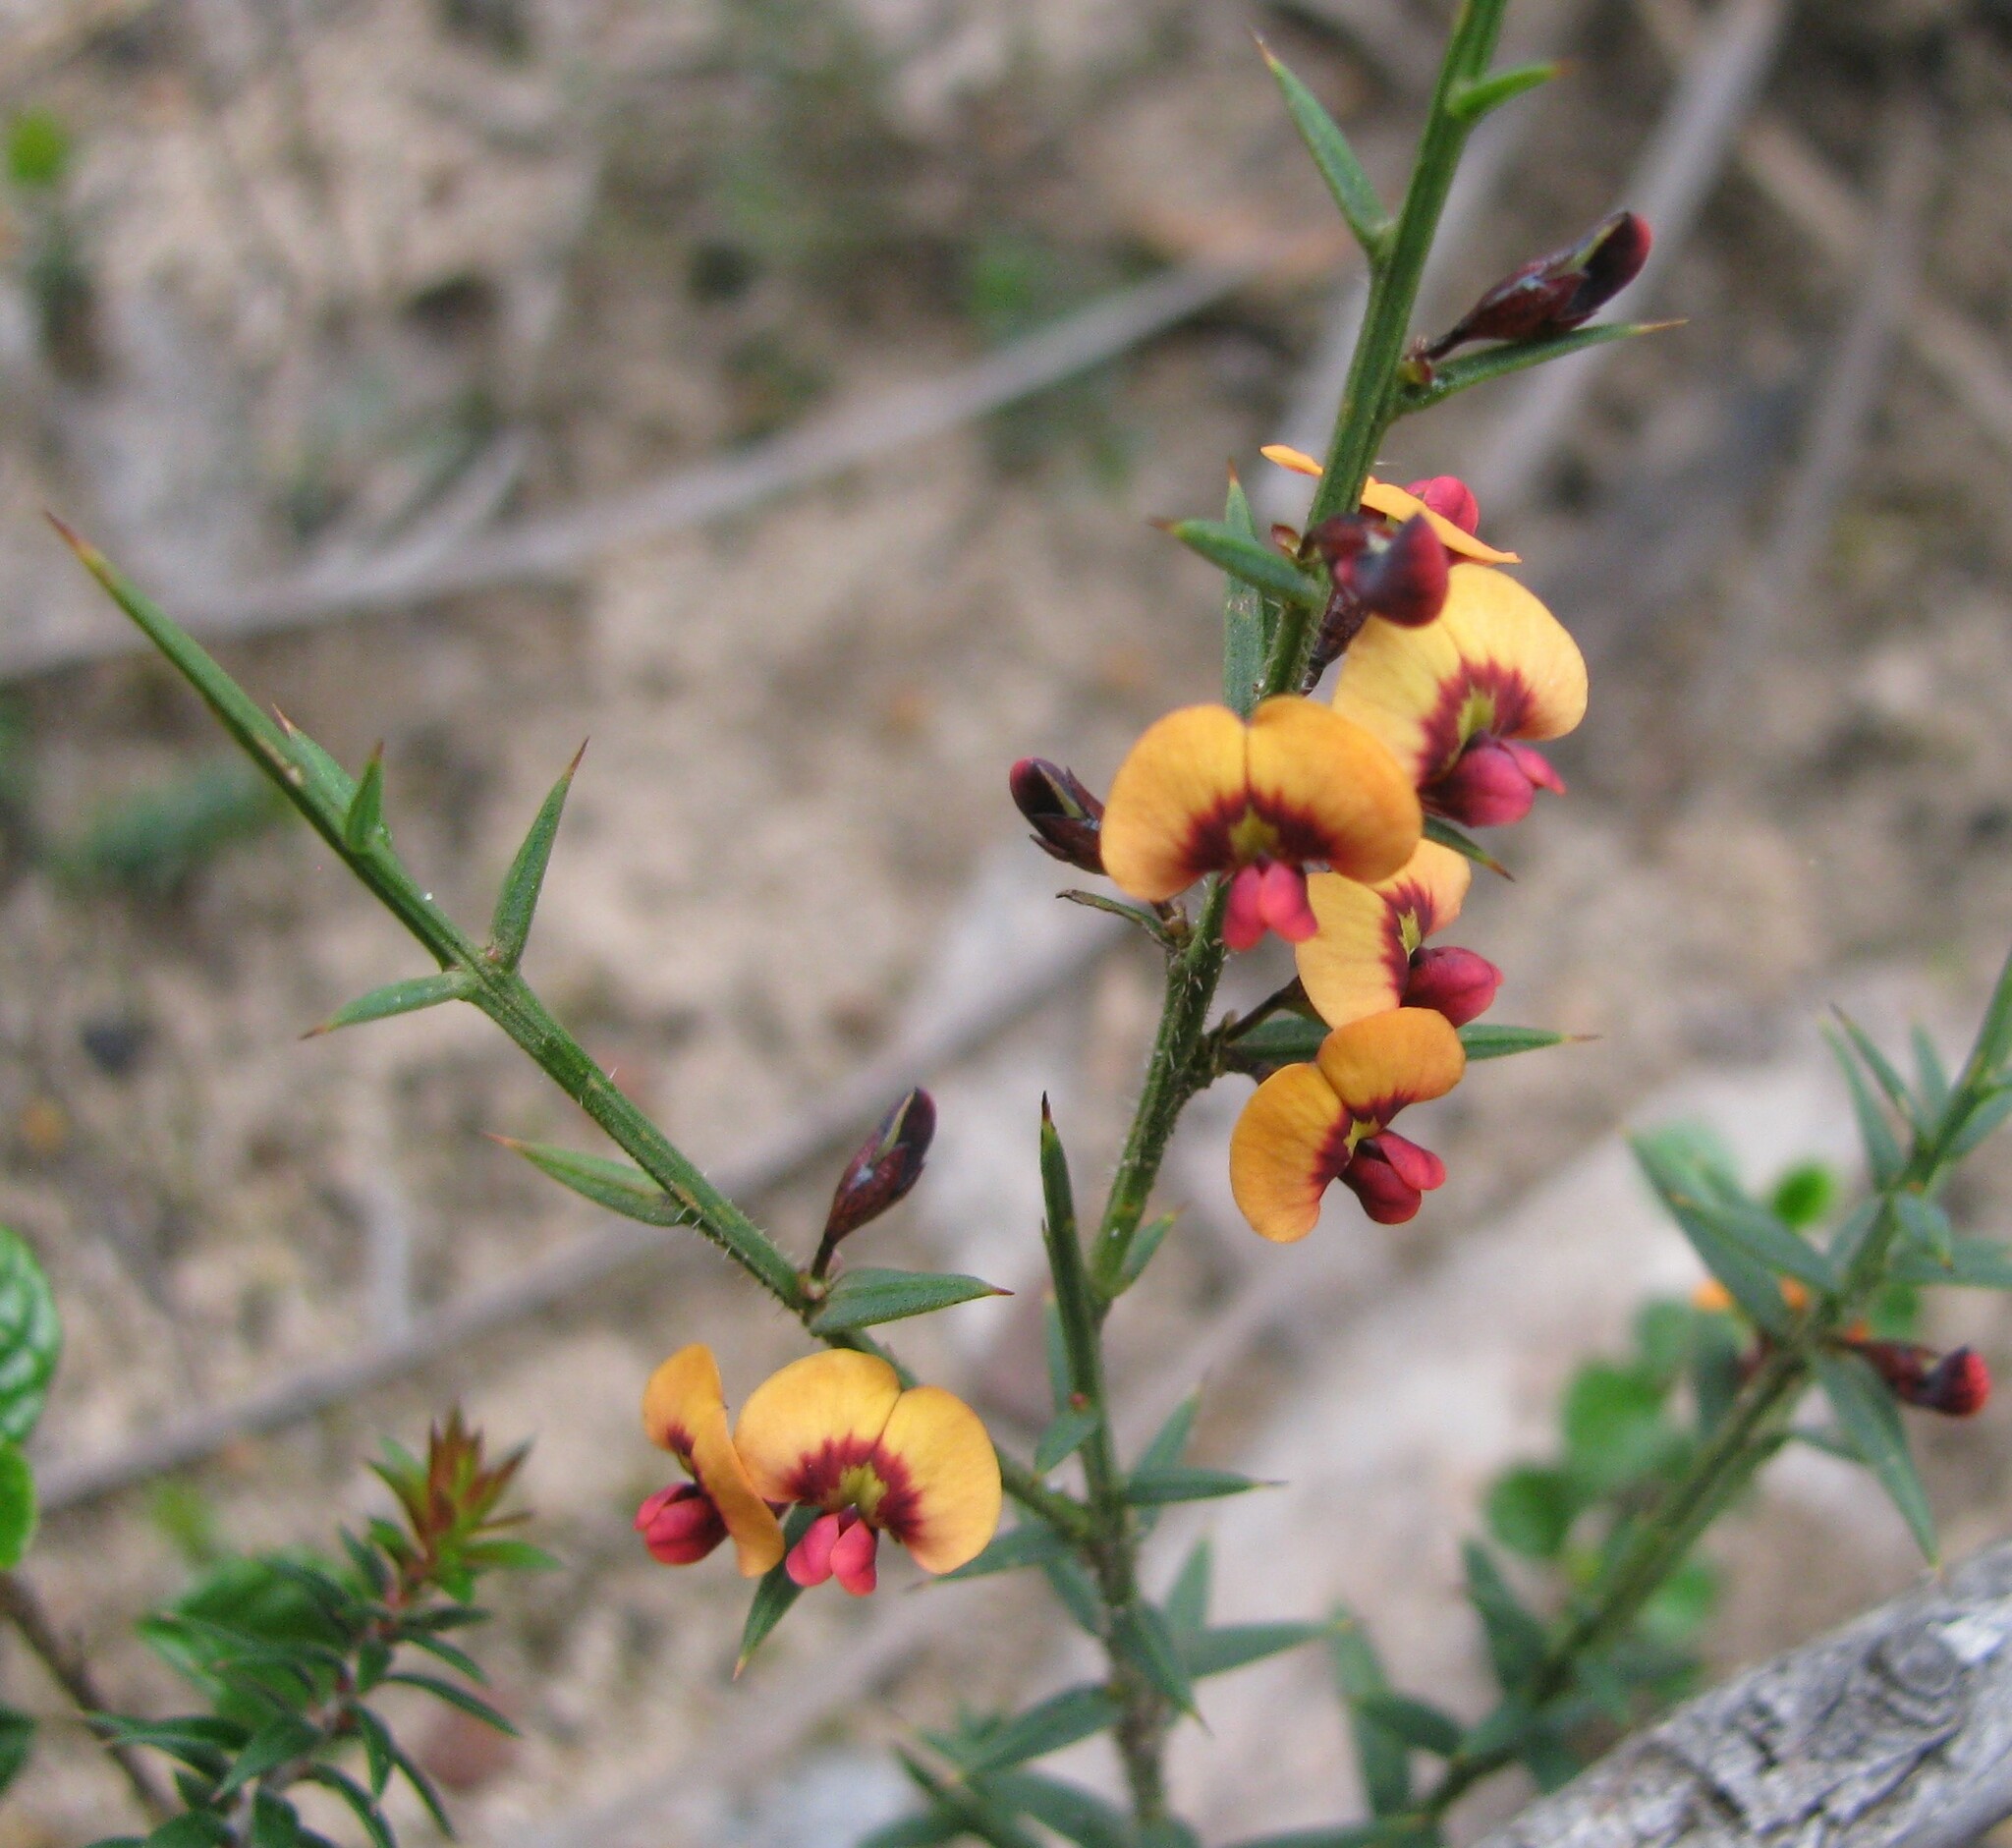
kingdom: Plantae
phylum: Tracheophyta
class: Magnoliopsida
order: Fabales
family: Fabaceae
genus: Daviesia
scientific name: Daviesia ulicifolia
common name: Gorse bitter-pea
